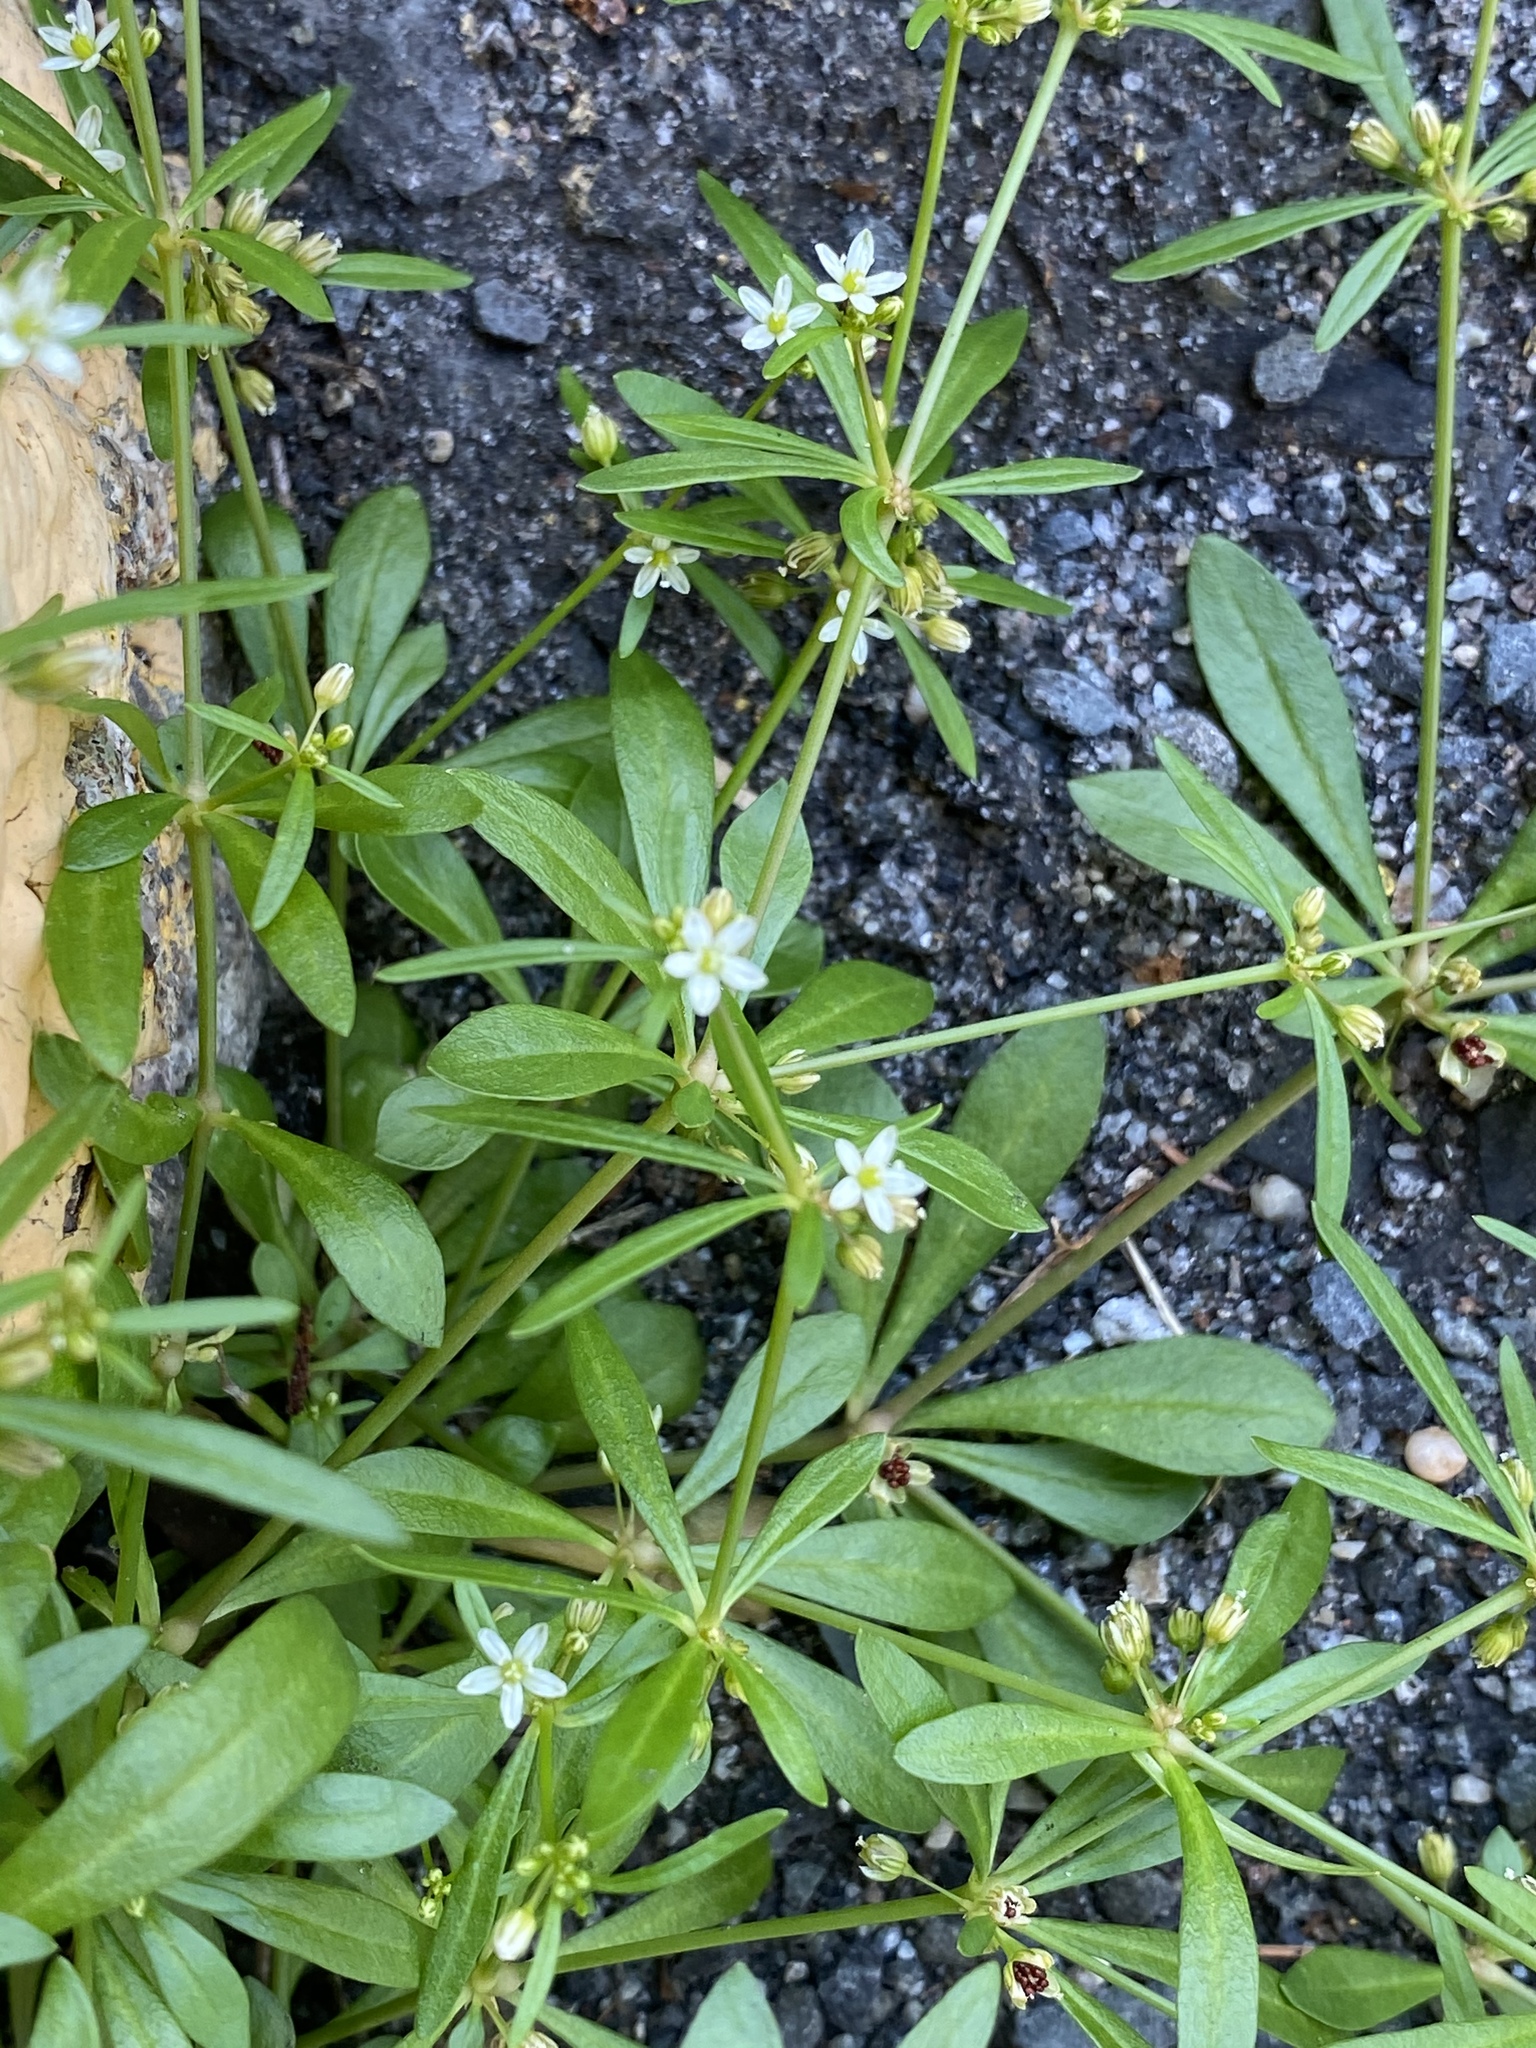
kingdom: Plantae
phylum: Tracheophyta
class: Magnoliopsida
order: Caryophyllales
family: Molluginaceae
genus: Mollugo
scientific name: Mollugo verticillata
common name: Green carpetweed
